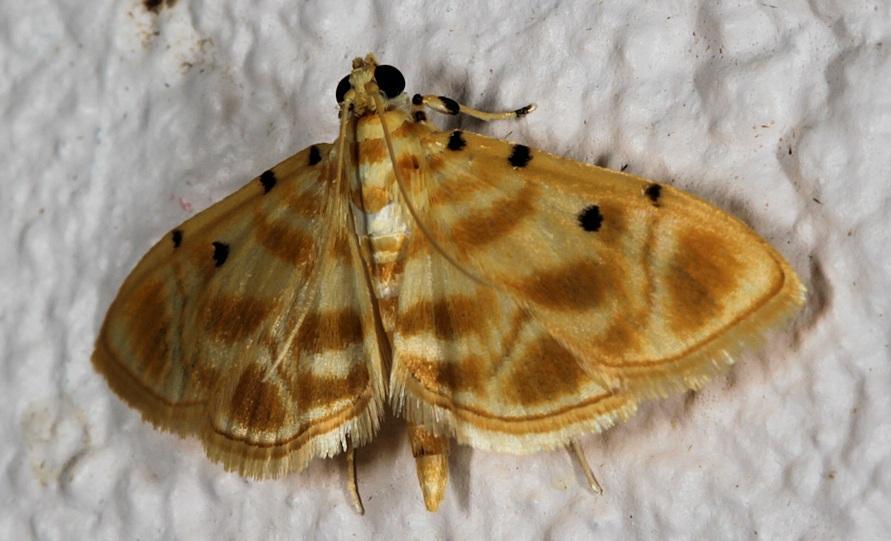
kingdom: Animalia
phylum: Arthropoda
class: Insecta
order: Lepidoptera
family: Crambidae
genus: Lygropia
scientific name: Lygropia tetraspilalis
